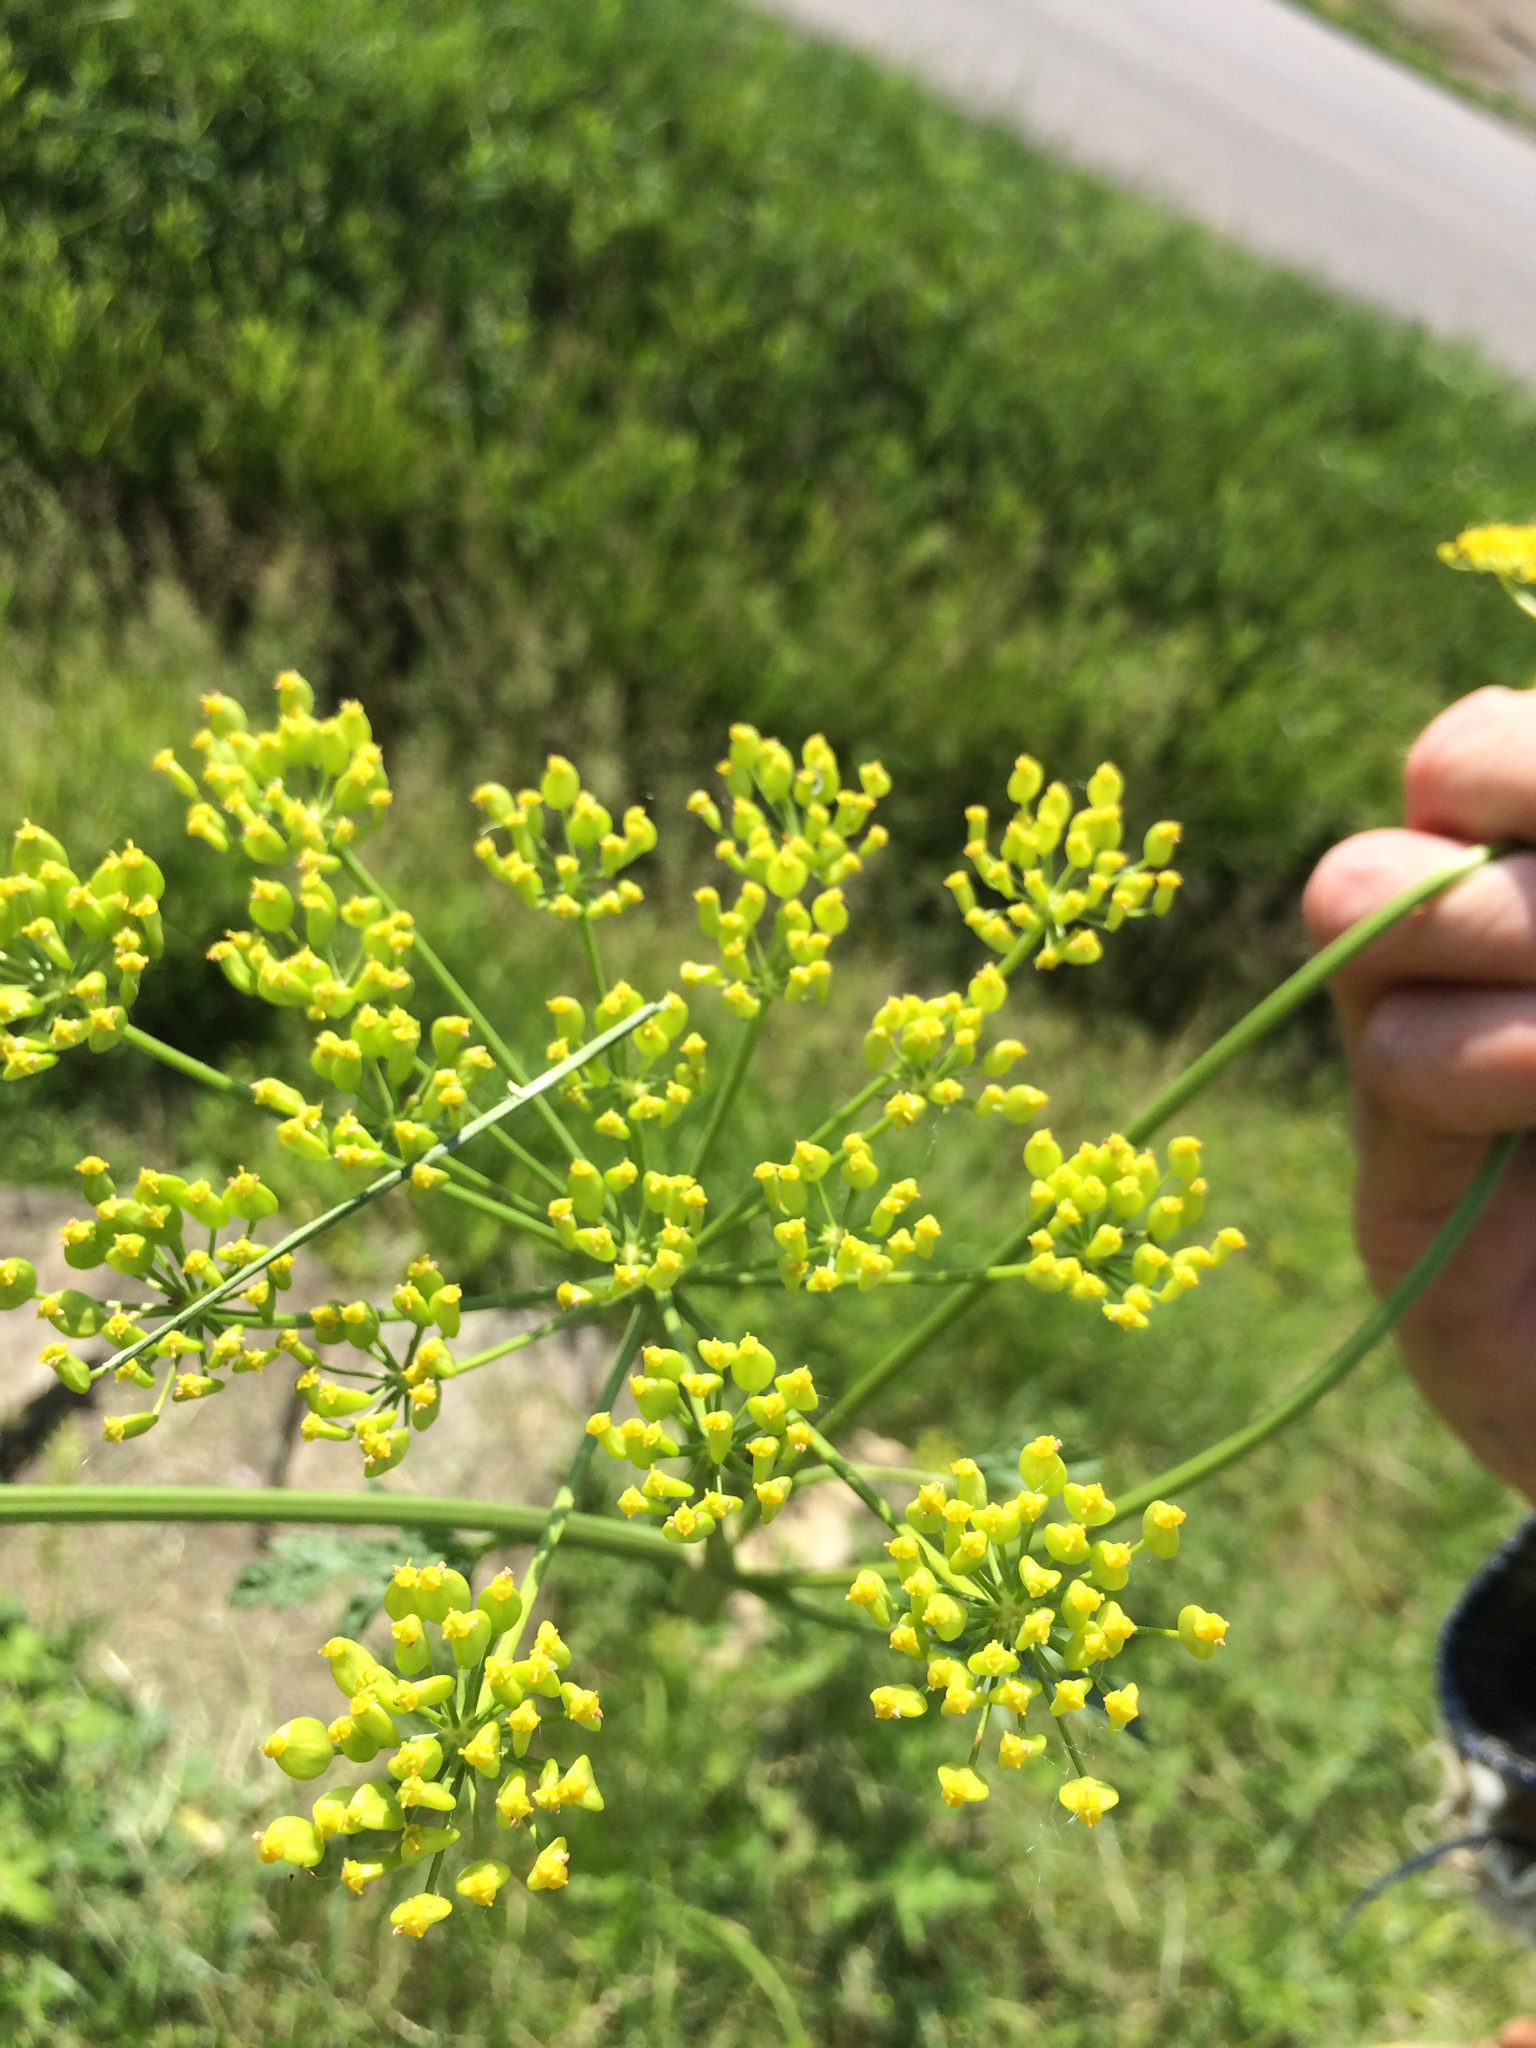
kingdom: Plantae
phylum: Tracheophyta
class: Magnoliopsida
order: Apiales
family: Apiaceae
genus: Pastinaca
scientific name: Pastinaca sativa
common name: Wild parsnip
